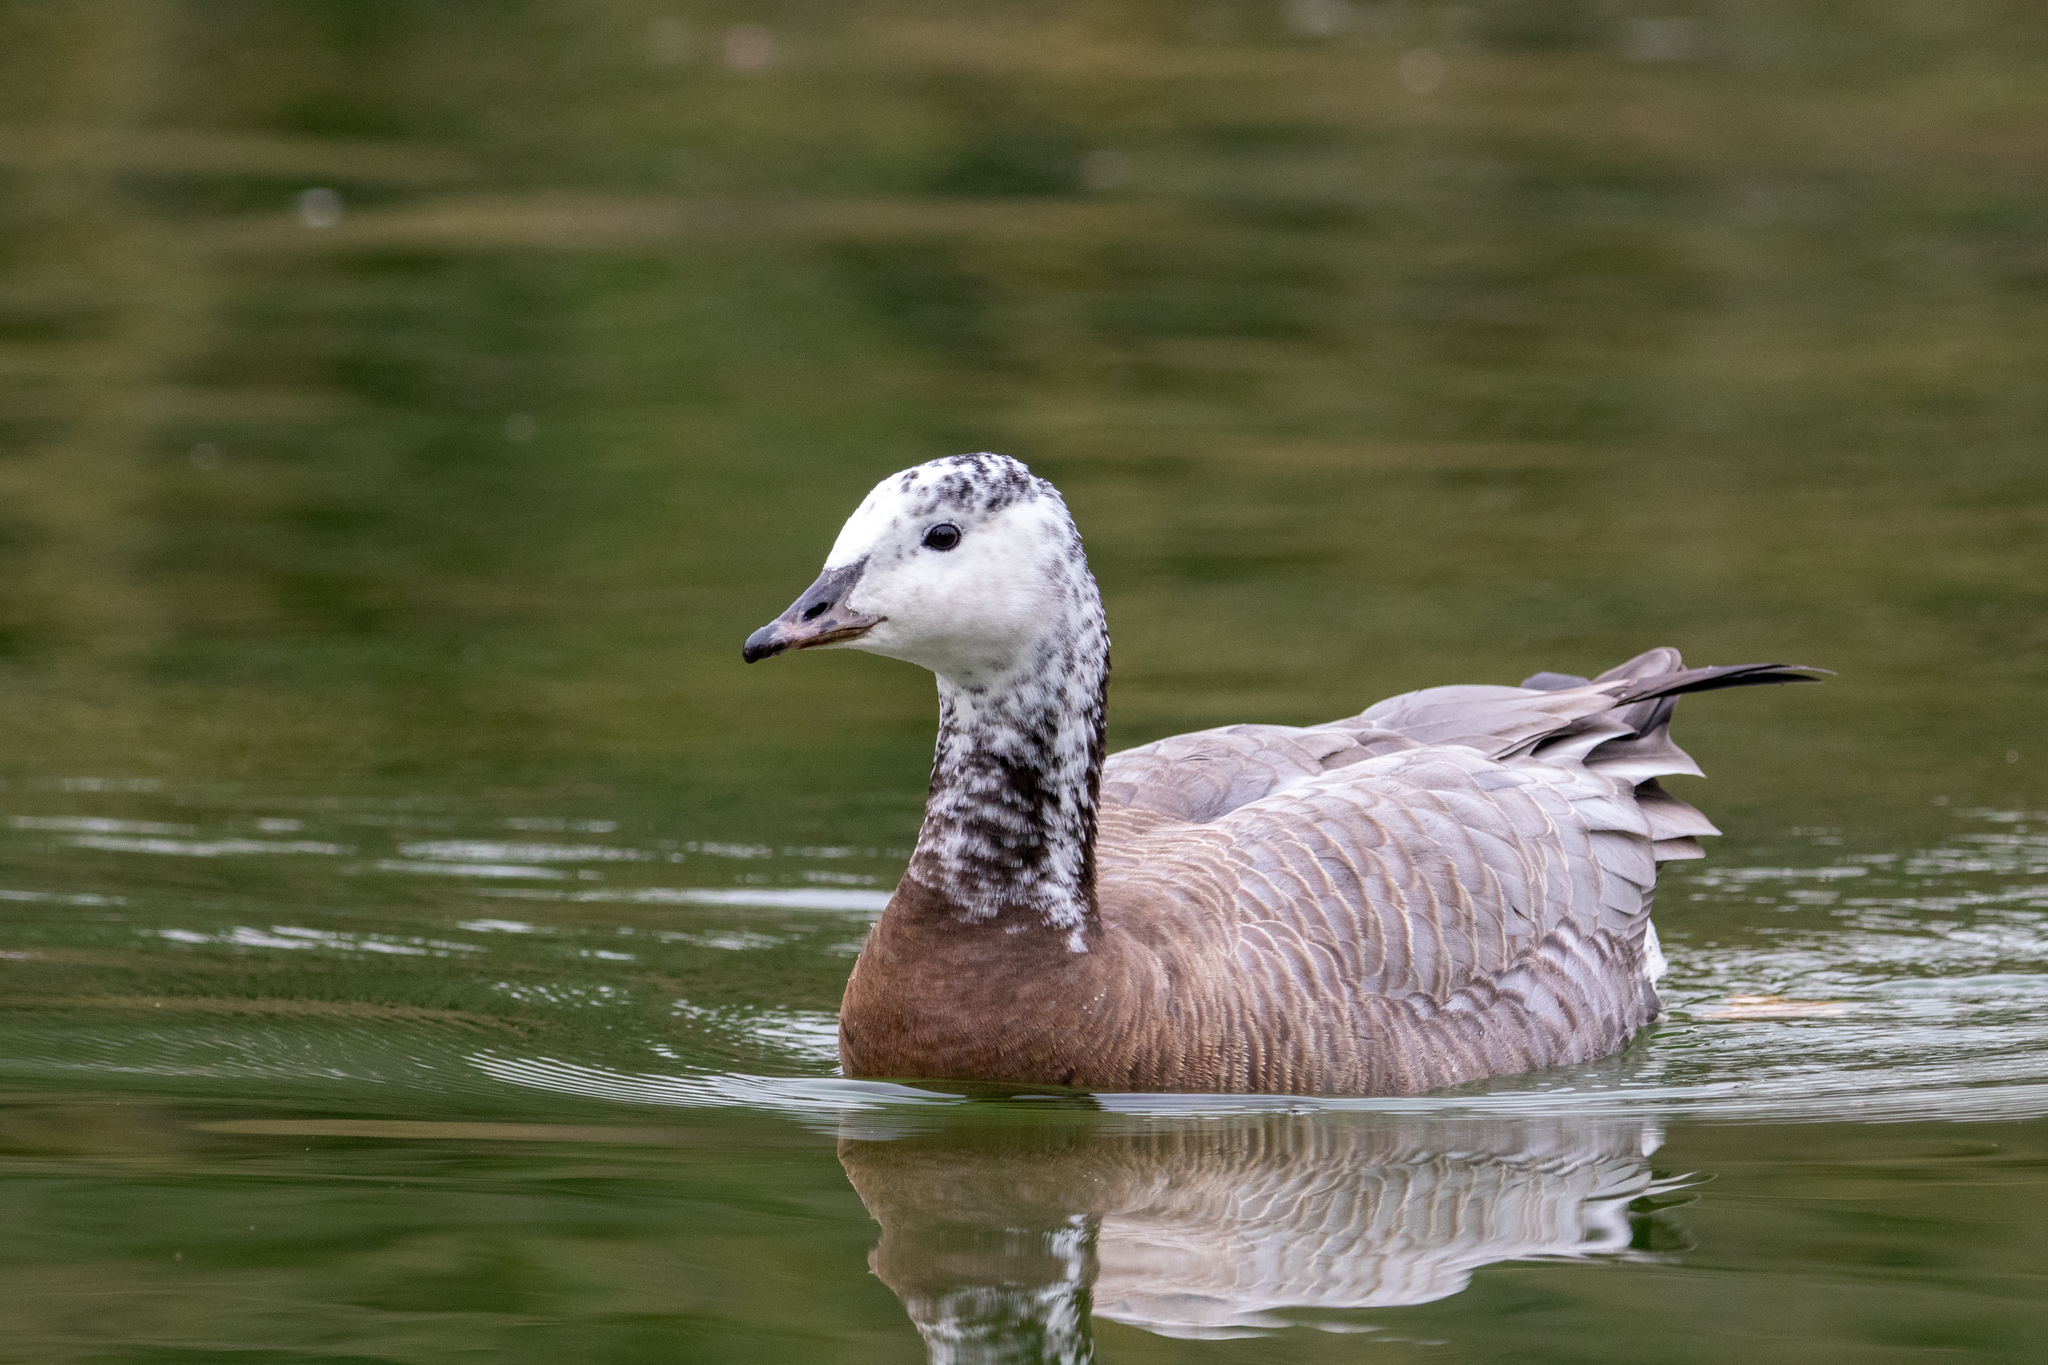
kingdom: Animalia
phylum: Chordata
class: Aves
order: Anseriformes
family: Anatidae
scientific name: Anatidae
